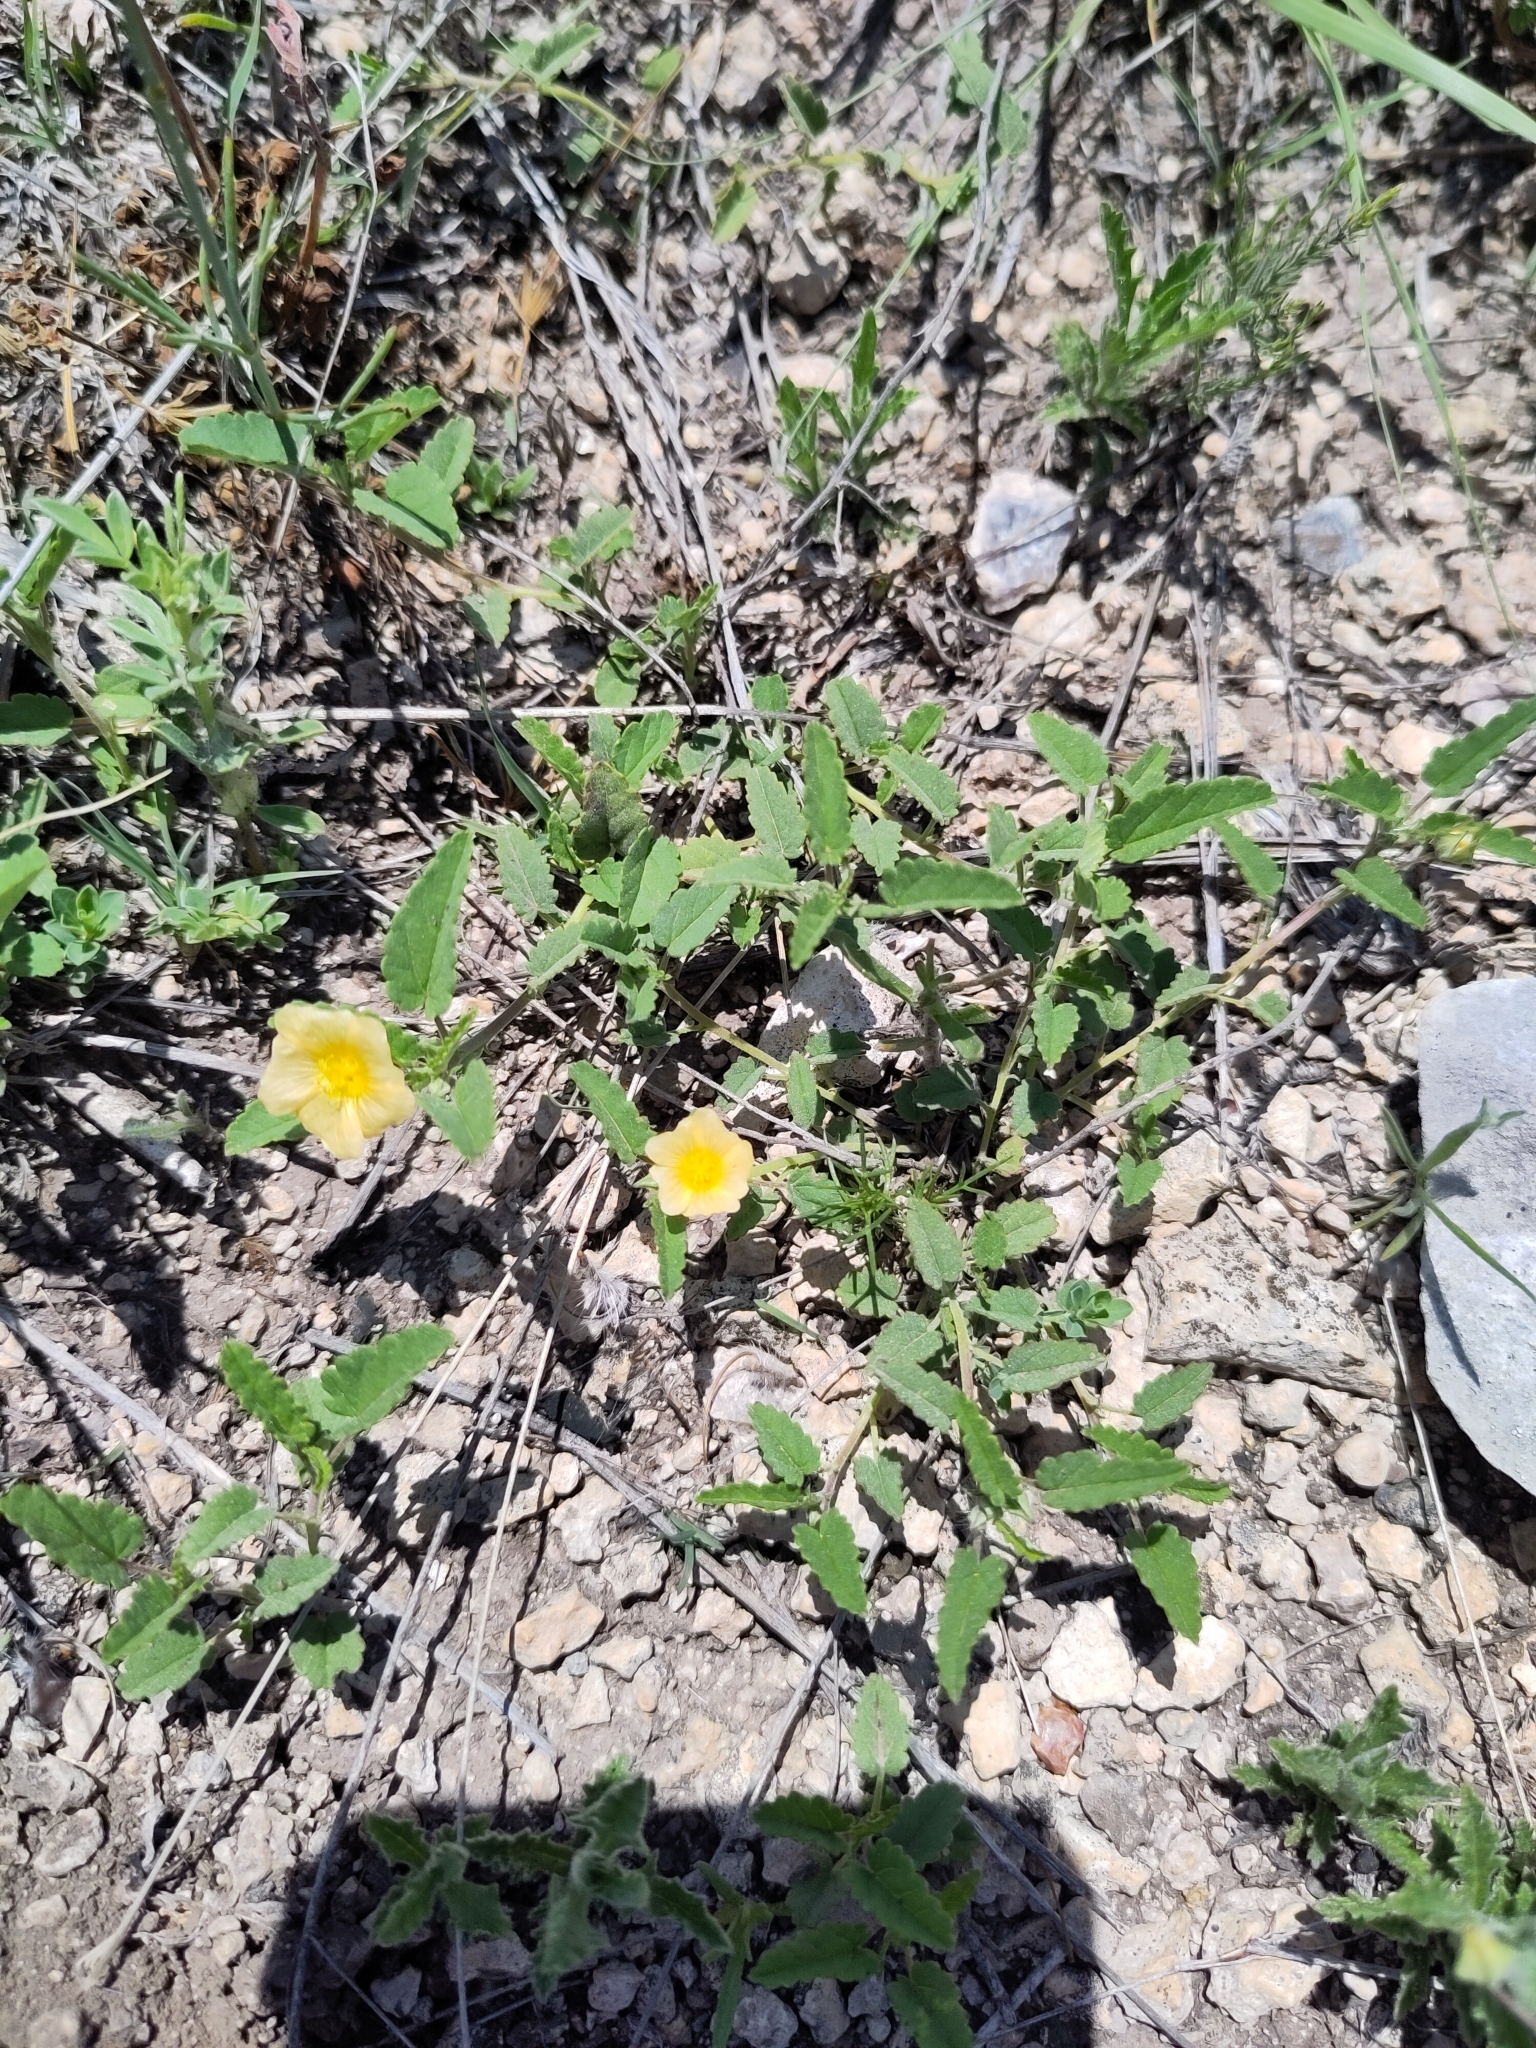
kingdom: Plantae
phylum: Tracheophyta
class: Magnoliopsida
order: Malvales
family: Malvaceae
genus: Sida
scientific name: Sida abutilifolia
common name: Spreading fanpetals
